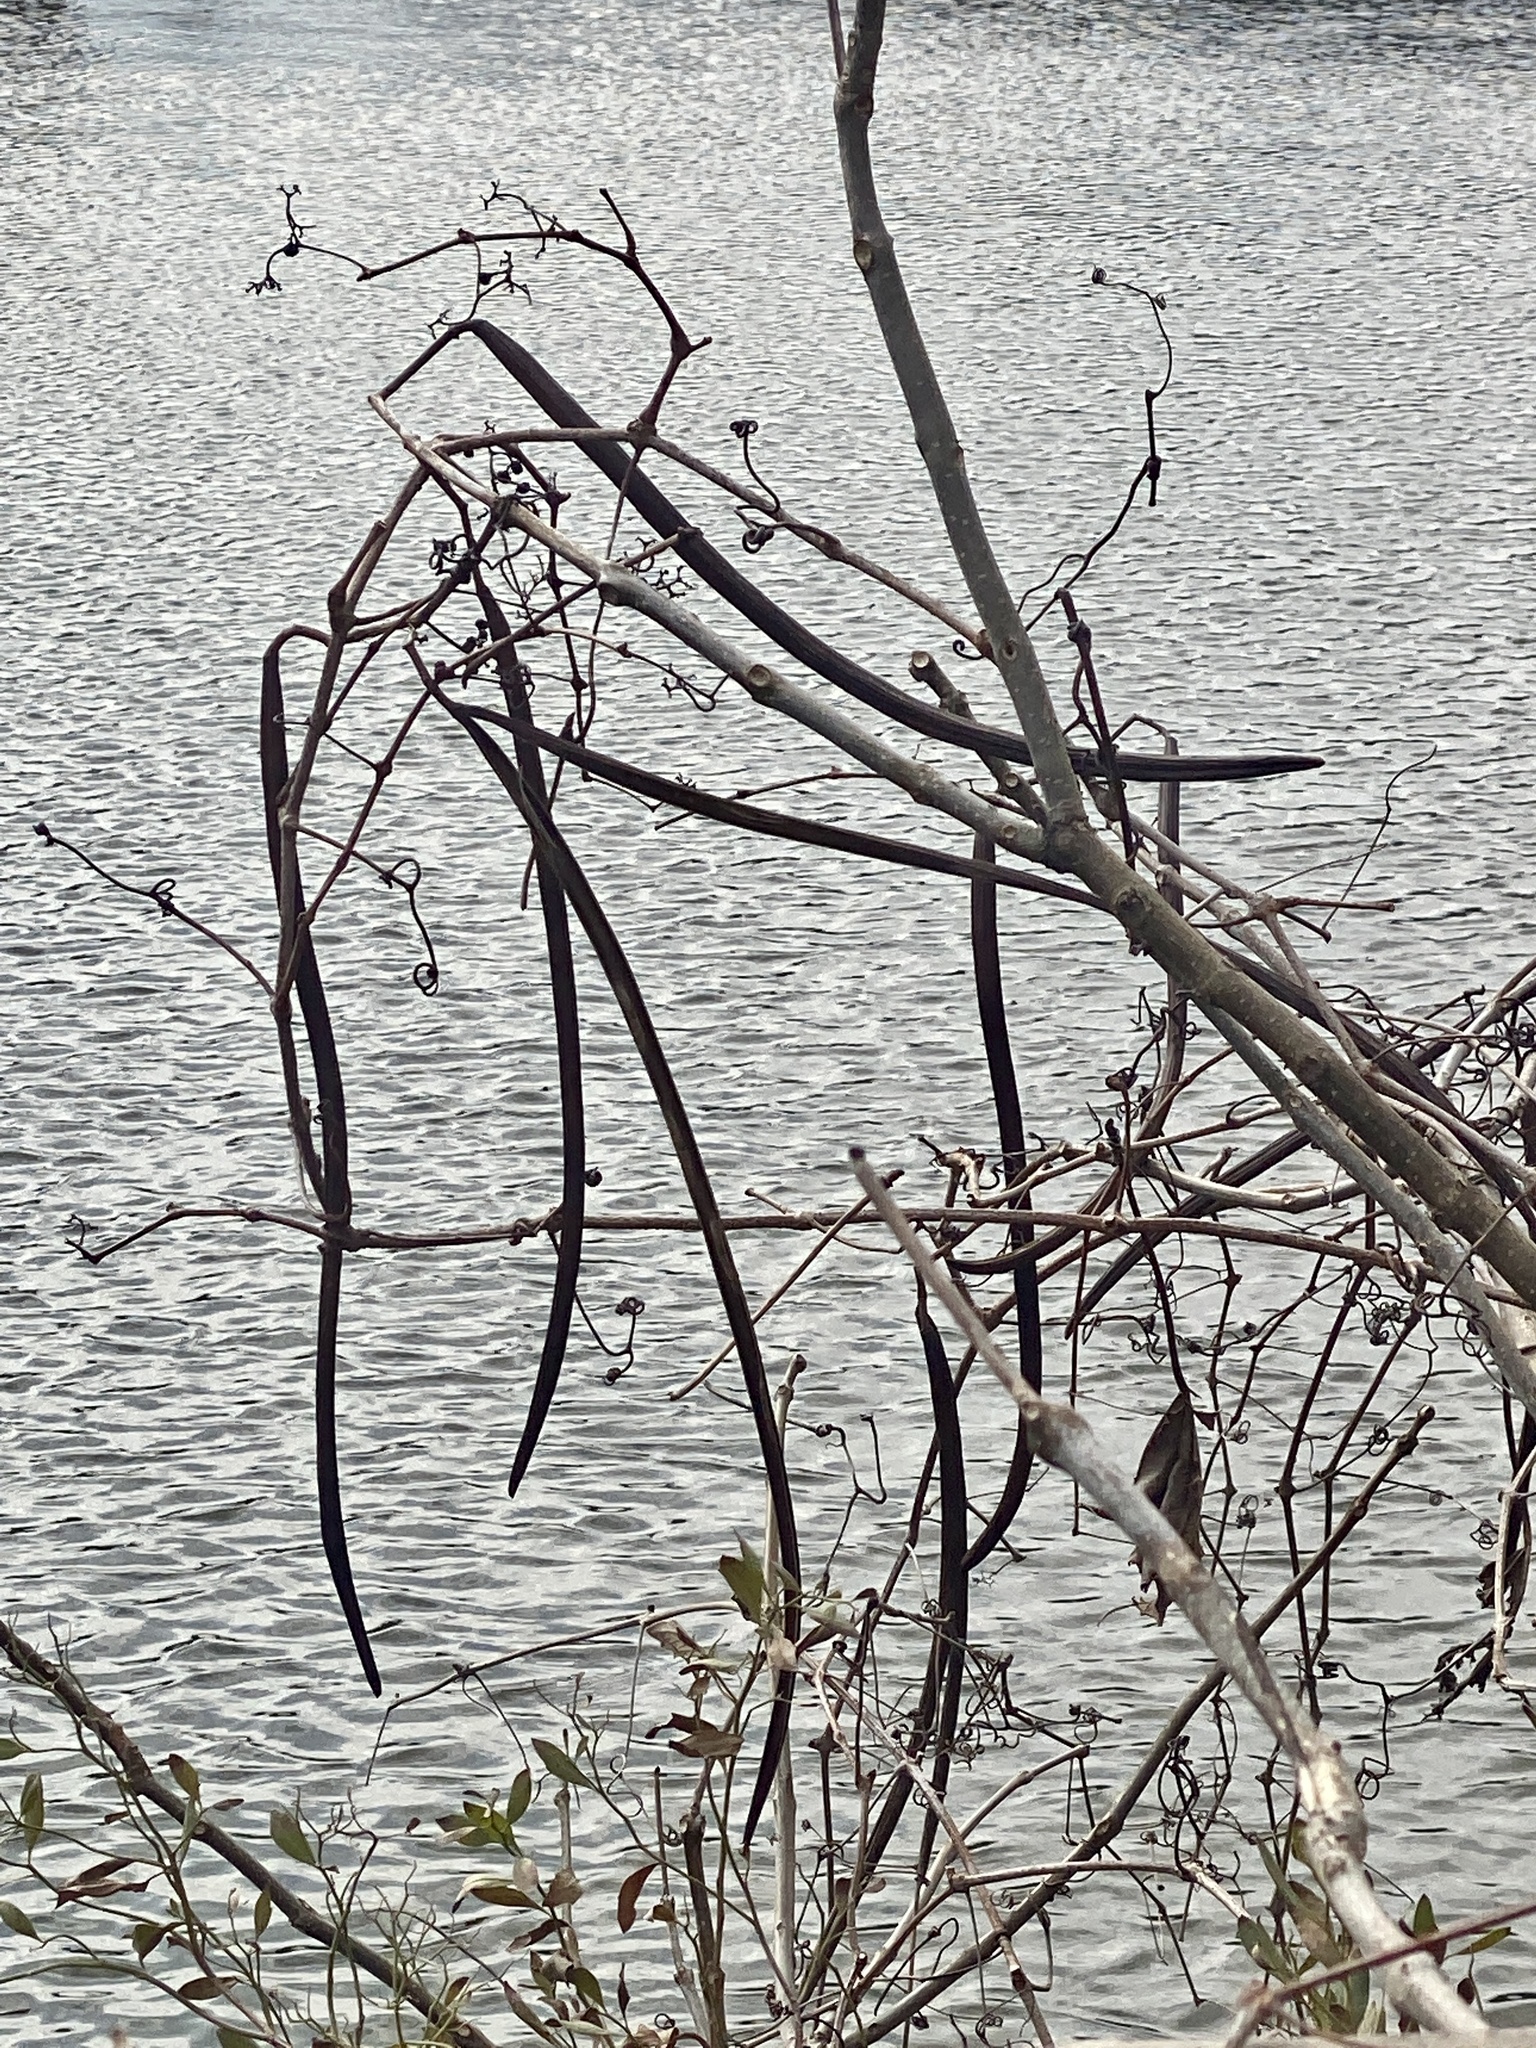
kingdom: Plantae
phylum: Tracheophyta
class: Magnoliopsida
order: Lamiales
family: Bignoniaceae
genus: Catalpa
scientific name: Catalpa
